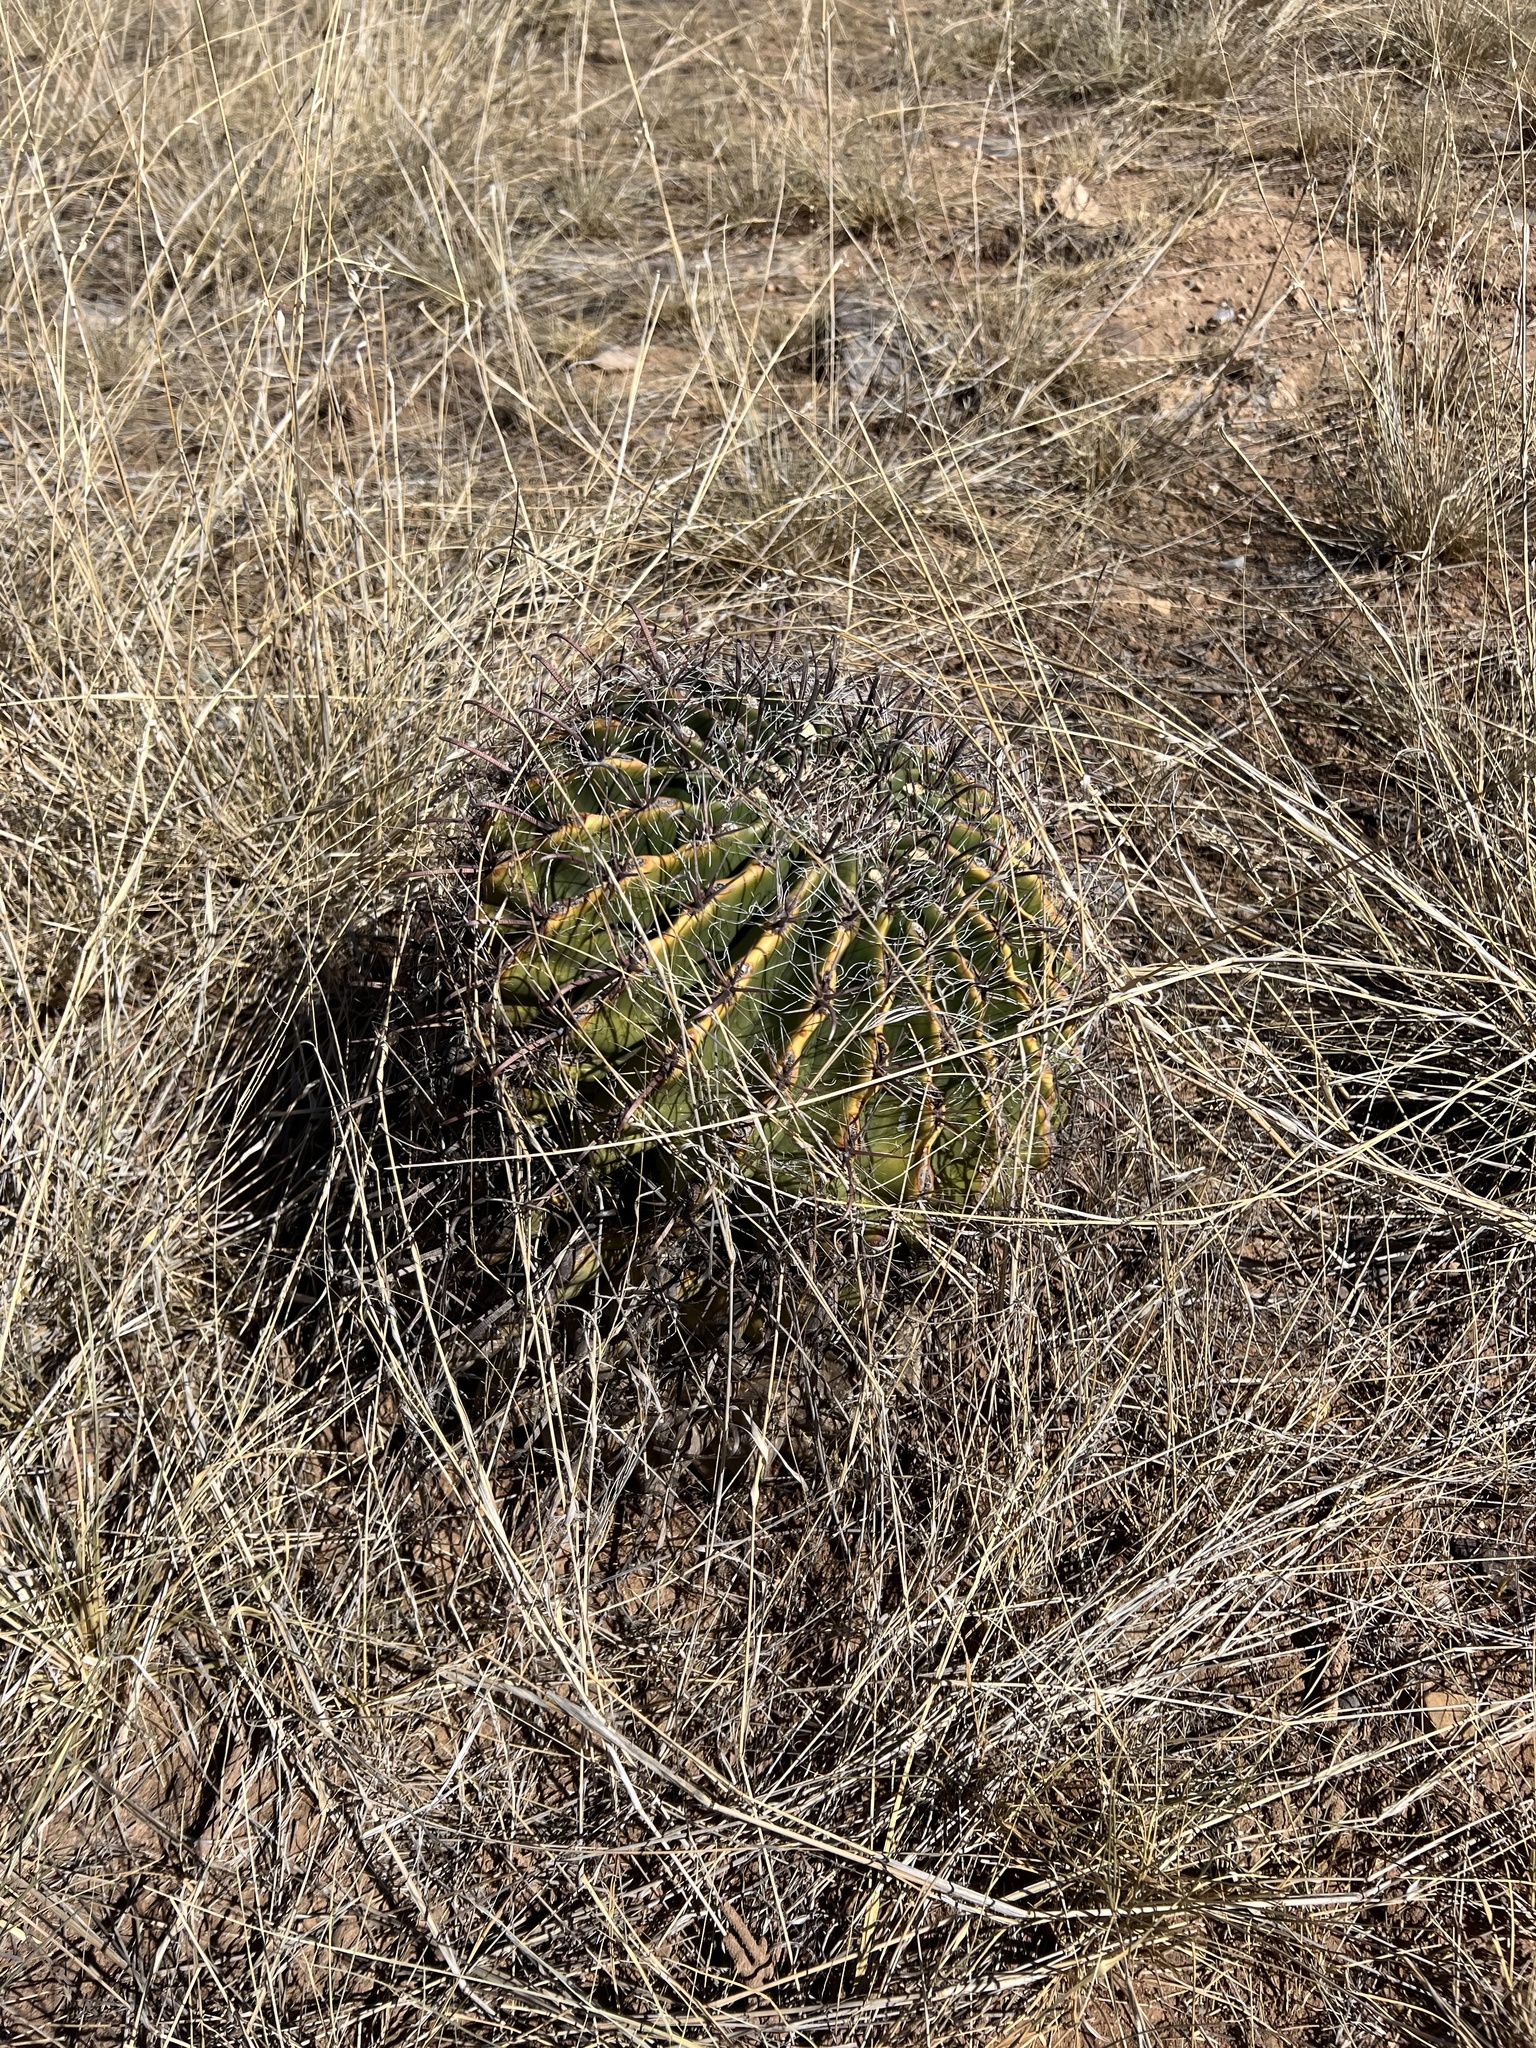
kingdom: Plantae
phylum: Tracheophyta
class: Magnoliopsida
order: Caryophyllales
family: Cactaceae
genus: Ferocactus
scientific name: Ferocactus wislizeni
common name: Candy barrel cactus
